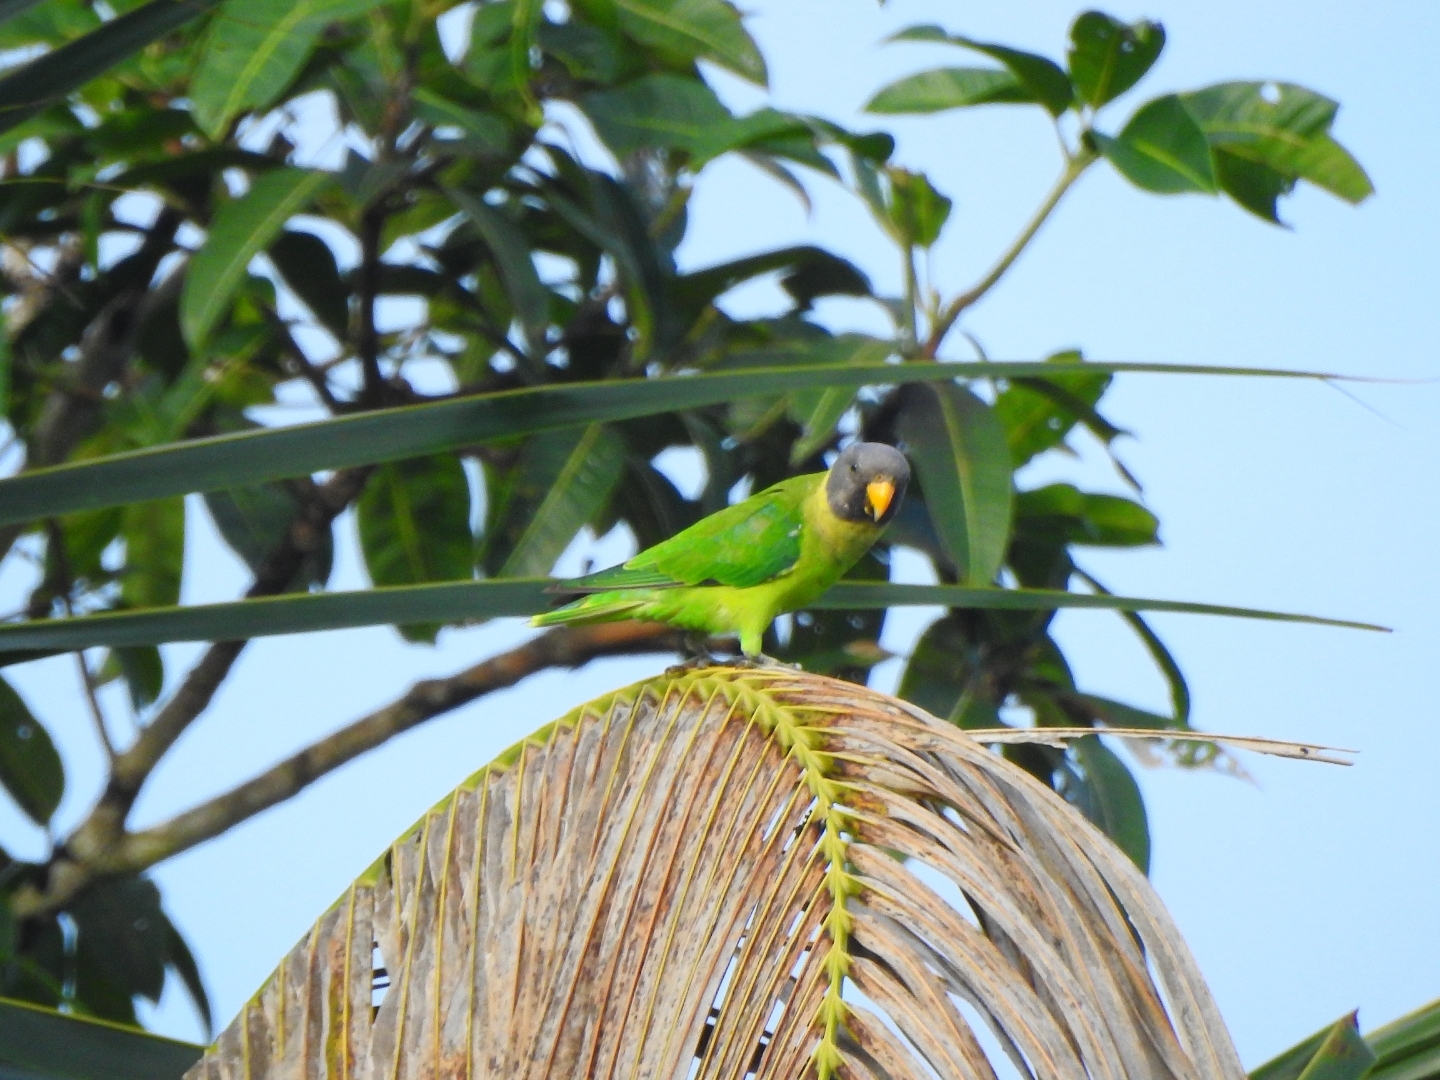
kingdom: Animalia
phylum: Chordata
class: Aves
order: Psittaciformes
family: Psittacidae
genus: Psittacula
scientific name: Psittacula cyanocephala
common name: Plum-headed parakeet
